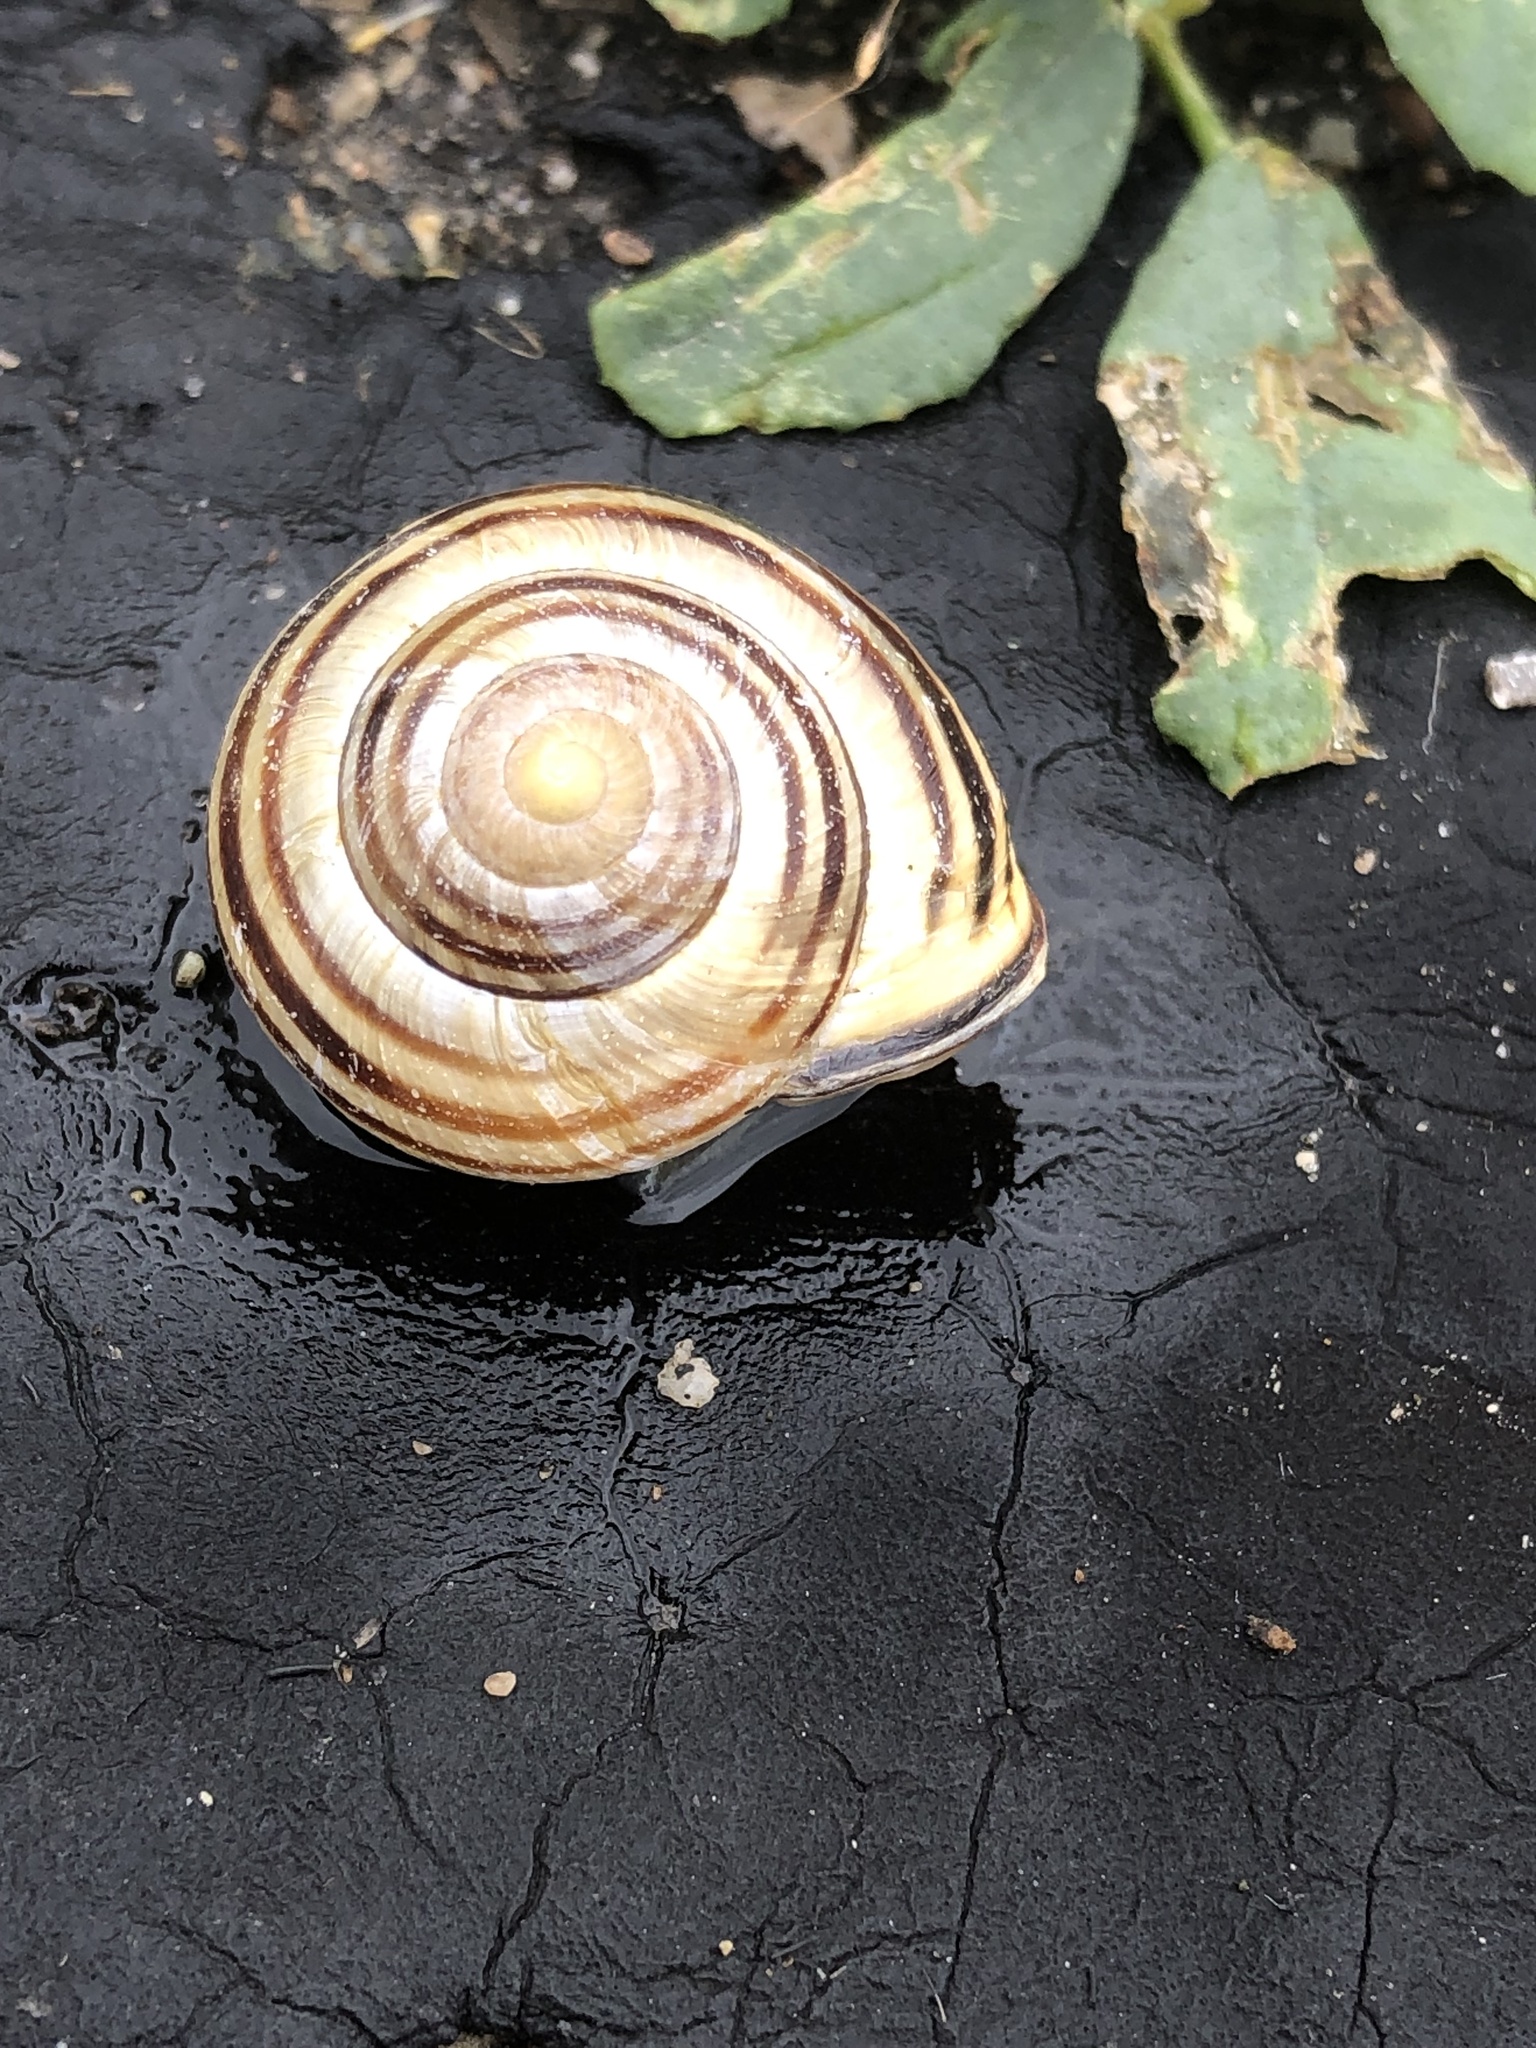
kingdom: Animalia
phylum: Mollusca
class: Gastropoda
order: Stylommatophora
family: Helicidae
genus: Cepaea
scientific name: Cepaea nemoralis
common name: Grovesnail
